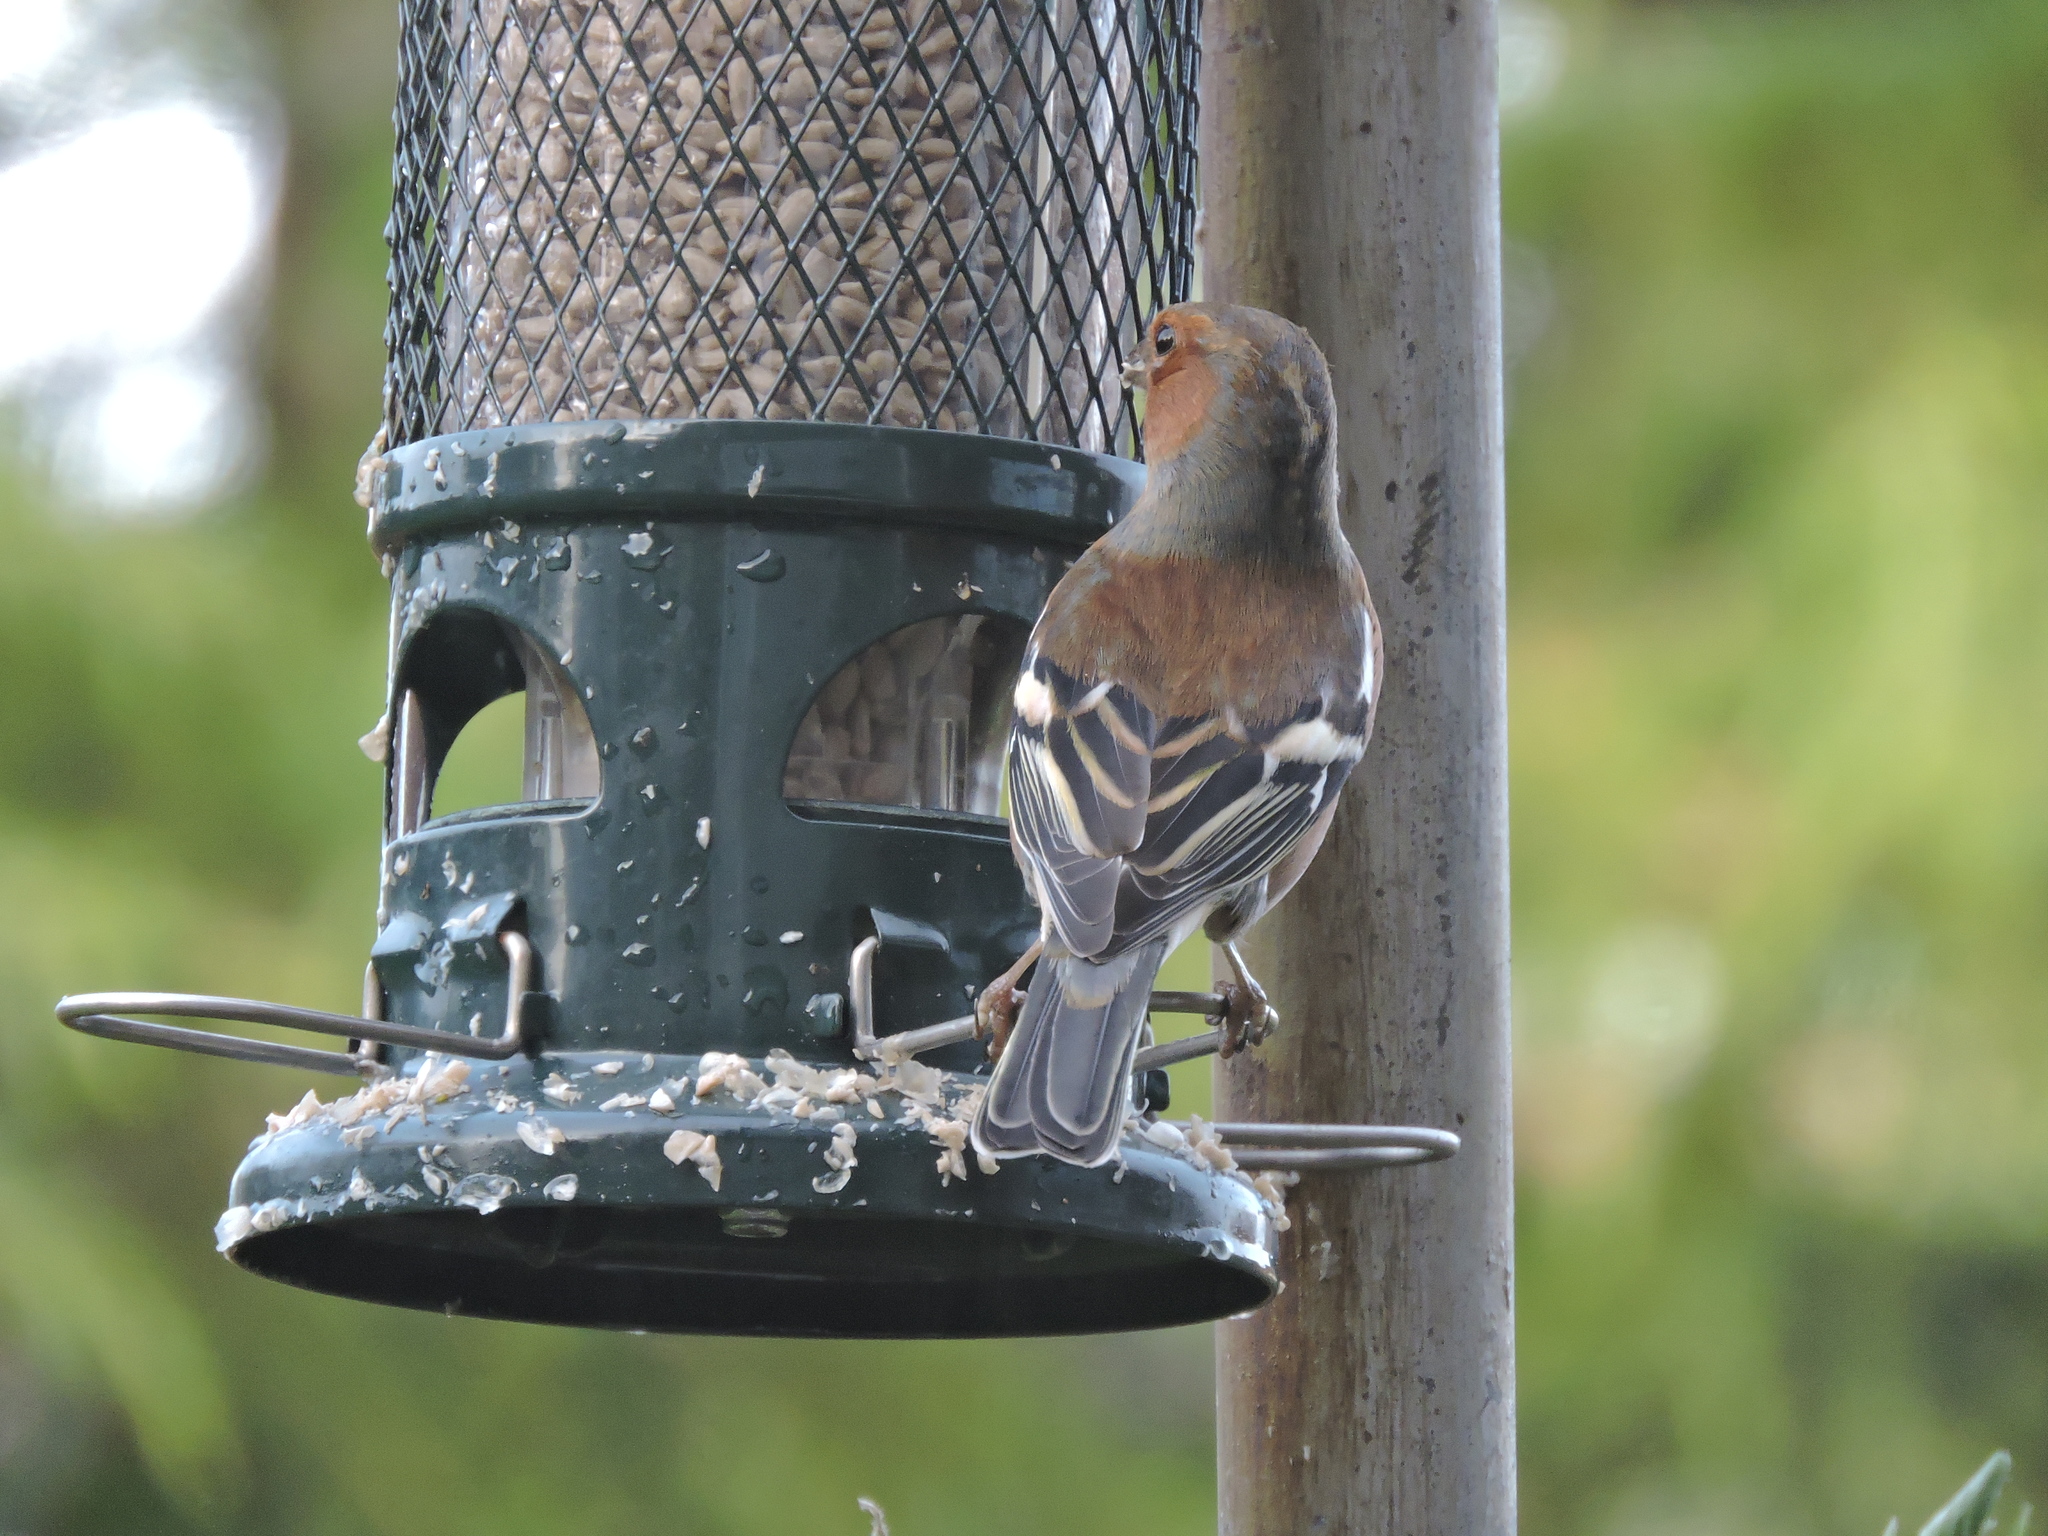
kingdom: Animalia
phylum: Chordata
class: Aves
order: Passeriformes
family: Fringillidae
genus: Fringilla
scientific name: Fringilla coelebs
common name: Common chaffinch
